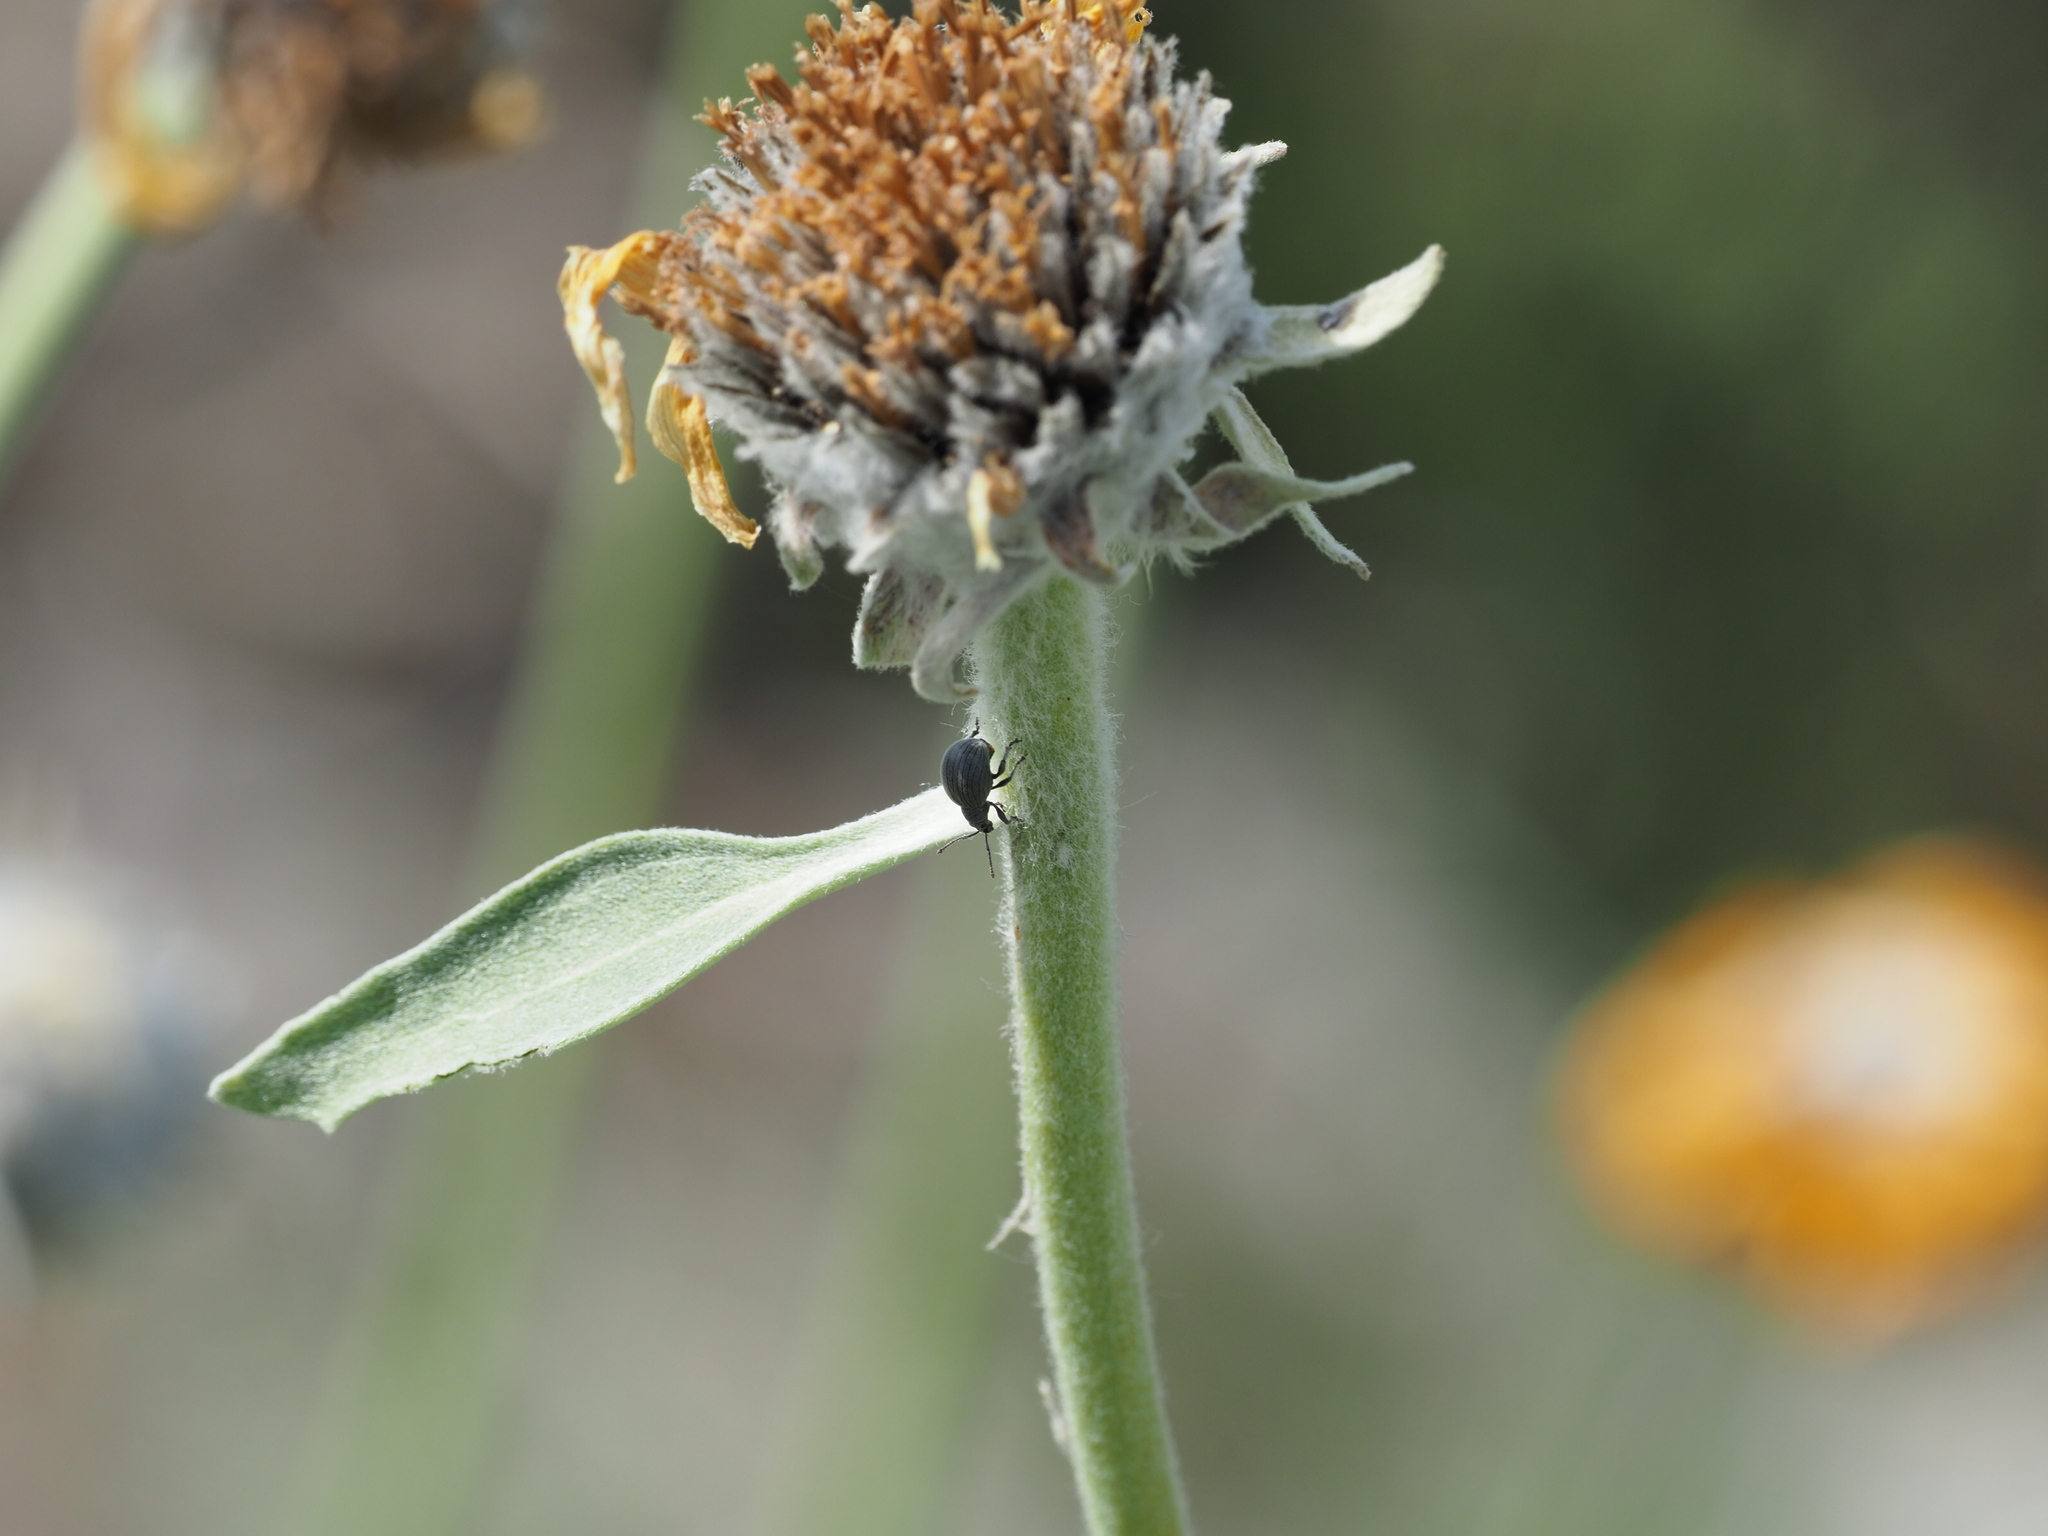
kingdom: Plantae
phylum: Tracheophyta
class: Magnoliopsida
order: Asterales
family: Asteraceae
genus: Wyethia
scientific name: Wyethia sagittata
